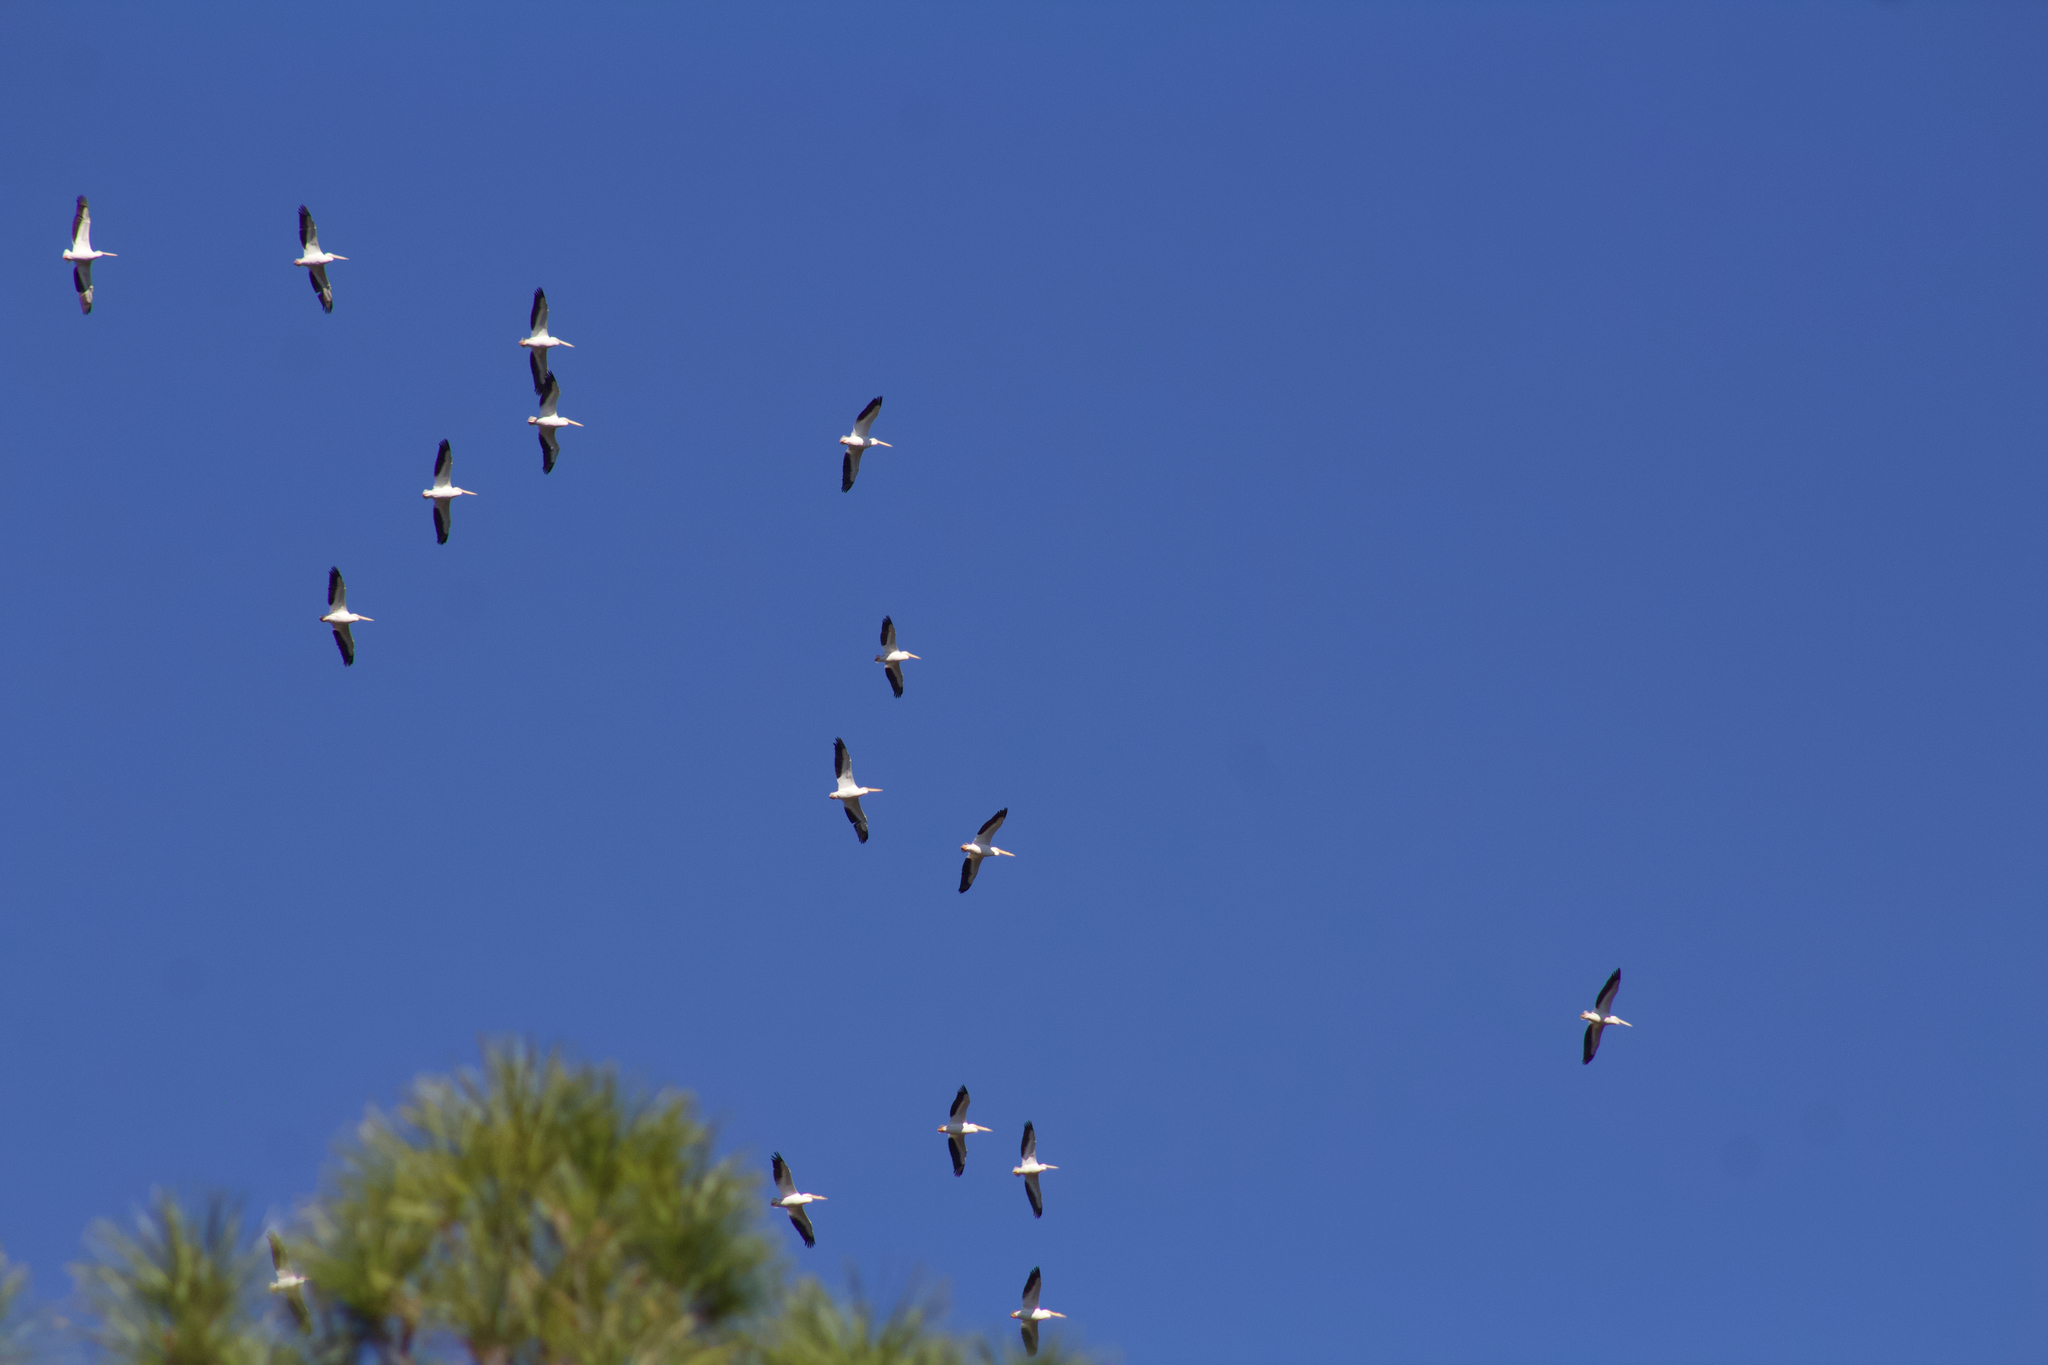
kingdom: Animalia
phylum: Chordata
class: Aves
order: Pelecaniformes
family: Pelecanidae
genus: Pelecanus
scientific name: Pelecanus erythrorhynchos
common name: American white pelican
